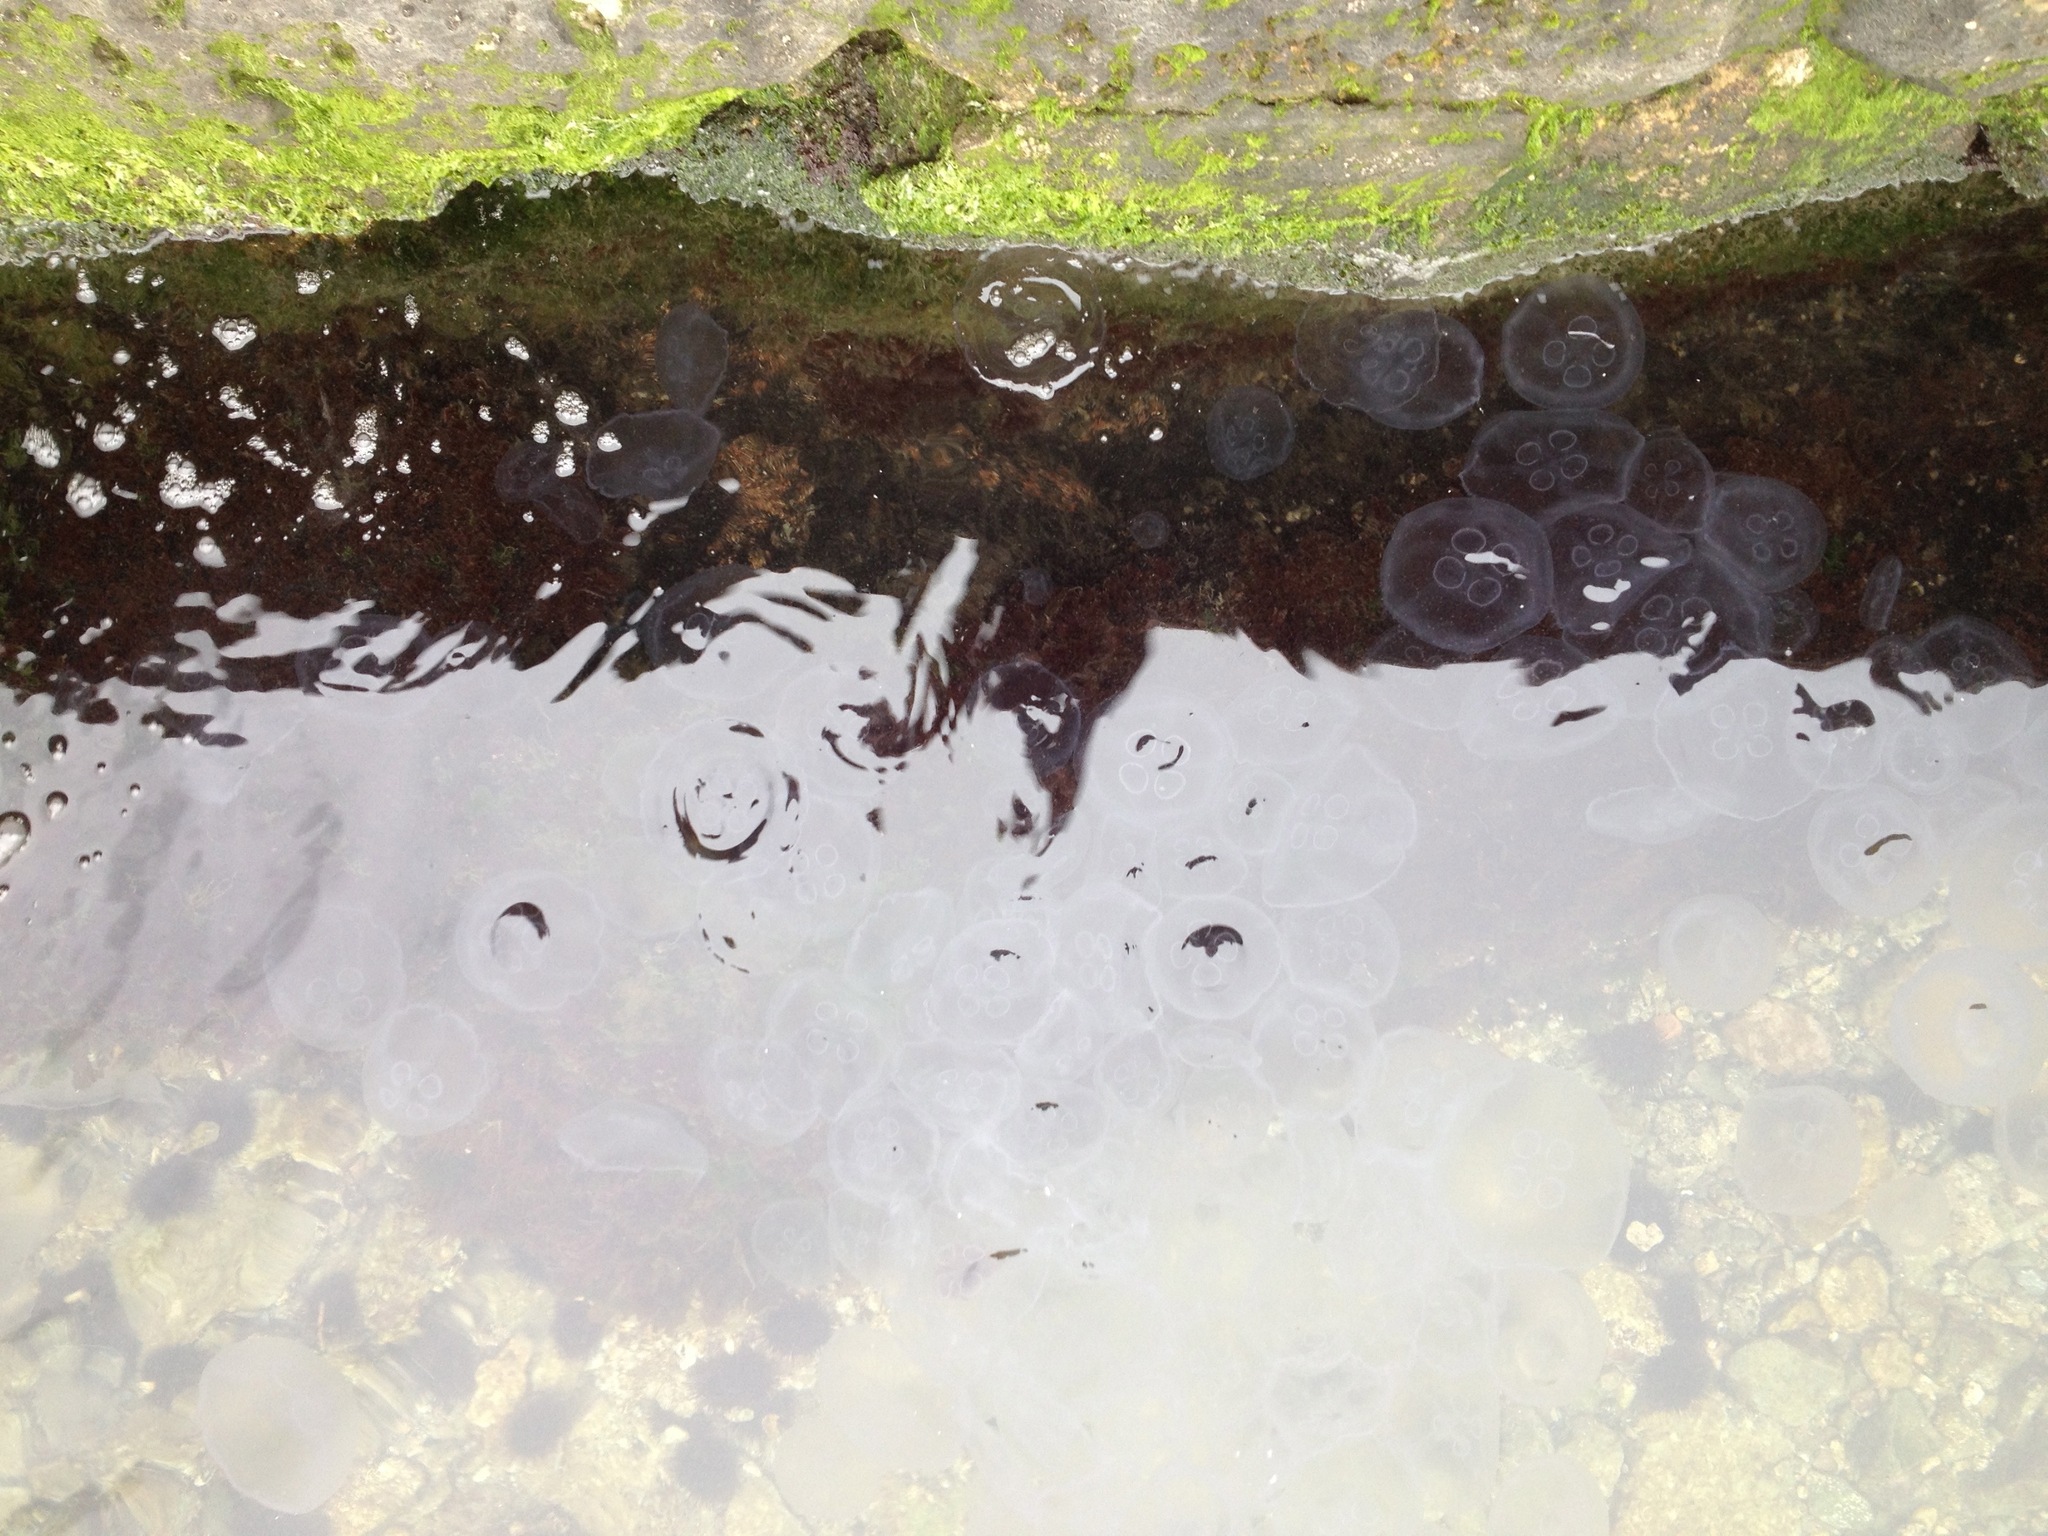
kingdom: Animalia
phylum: Cnidaria
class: Scyphozoa
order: Semaeostomeae
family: Ulmaridae
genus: Aurelia
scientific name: Aurelia
